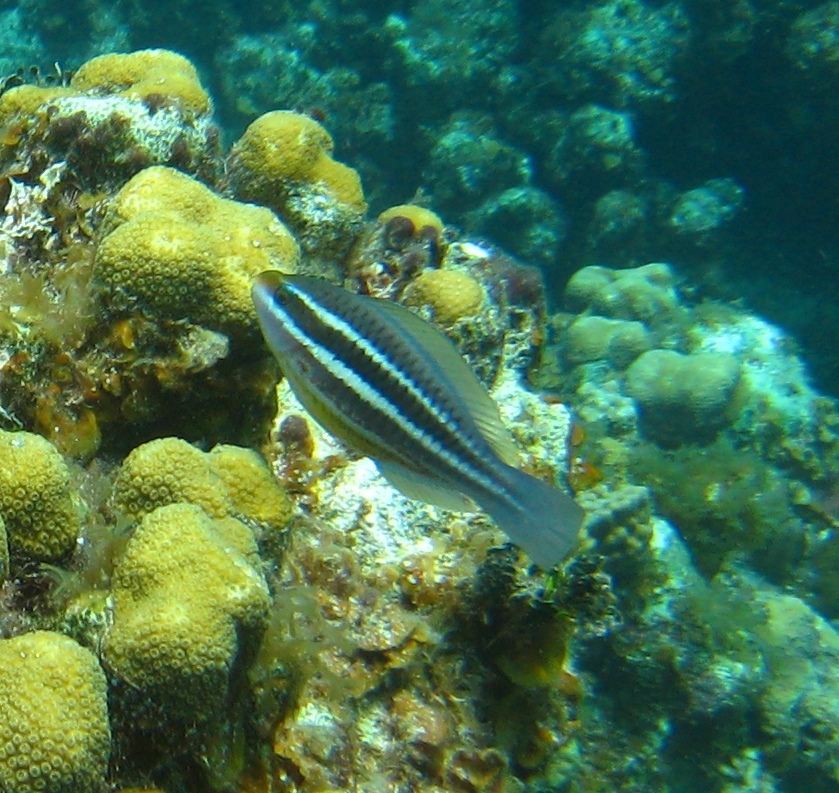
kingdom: Animalia
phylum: Chordata
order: Perciformes
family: Scaridae
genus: Scarus
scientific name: Scarus iseri
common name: Striped parrotfish
